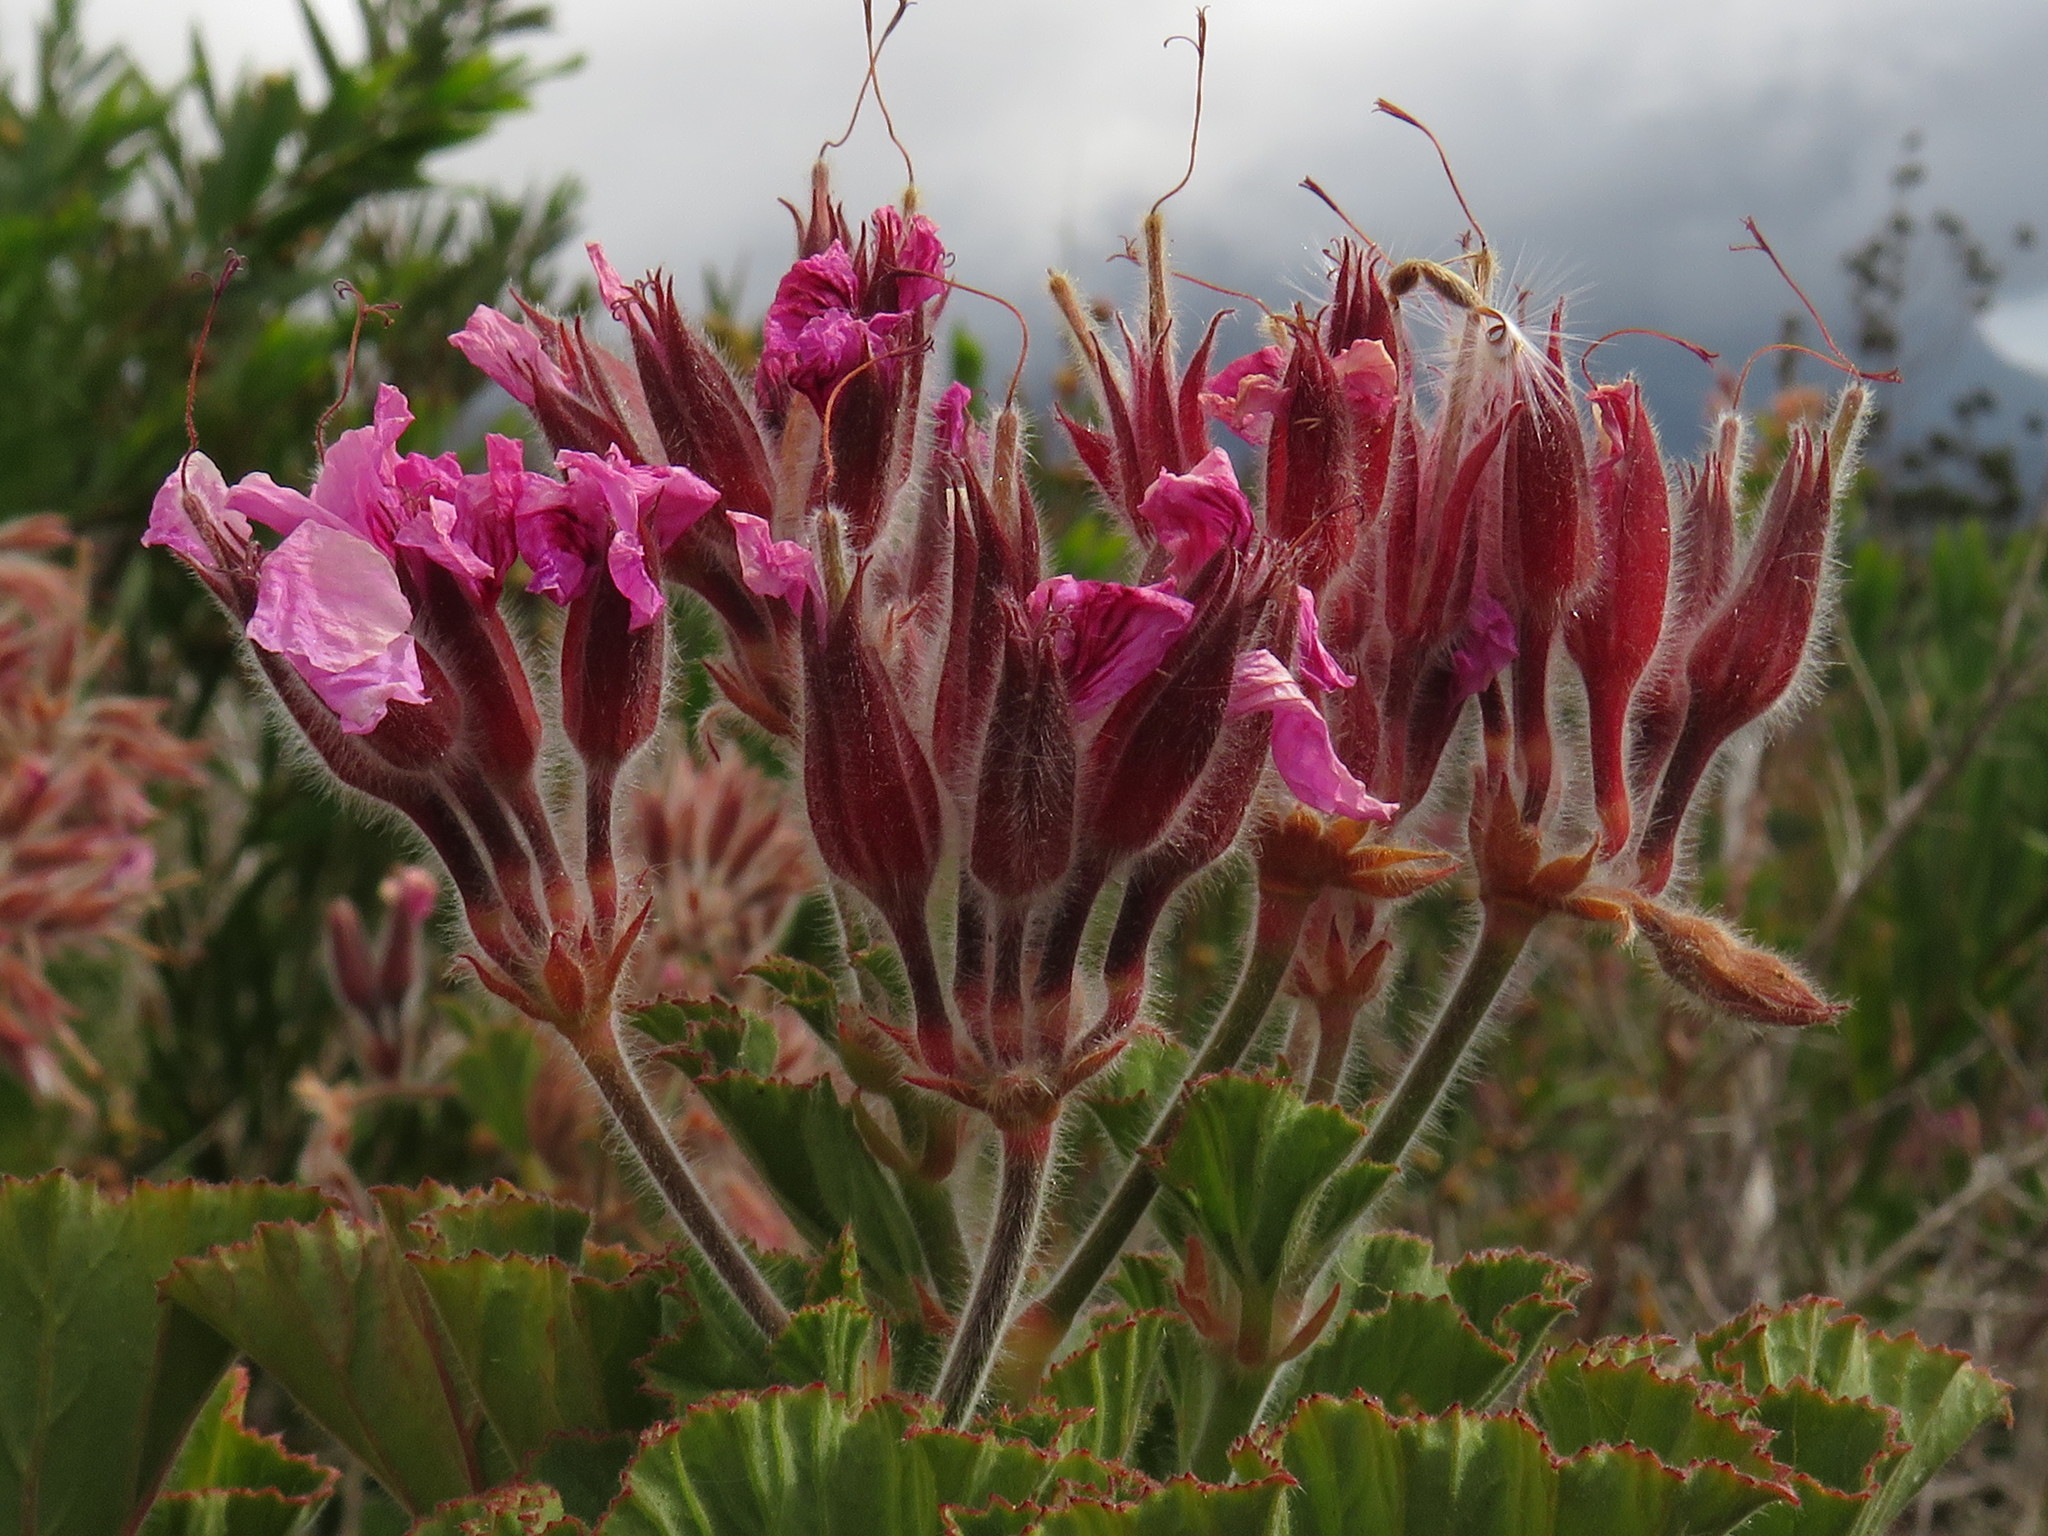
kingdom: Plantae
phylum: Tracheophyta
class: Magnoliopsida
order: Geraniales
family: Geraniaceae
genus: Pelargonium
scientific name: Pelargonium cucullatum
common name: Tree pelargonium
